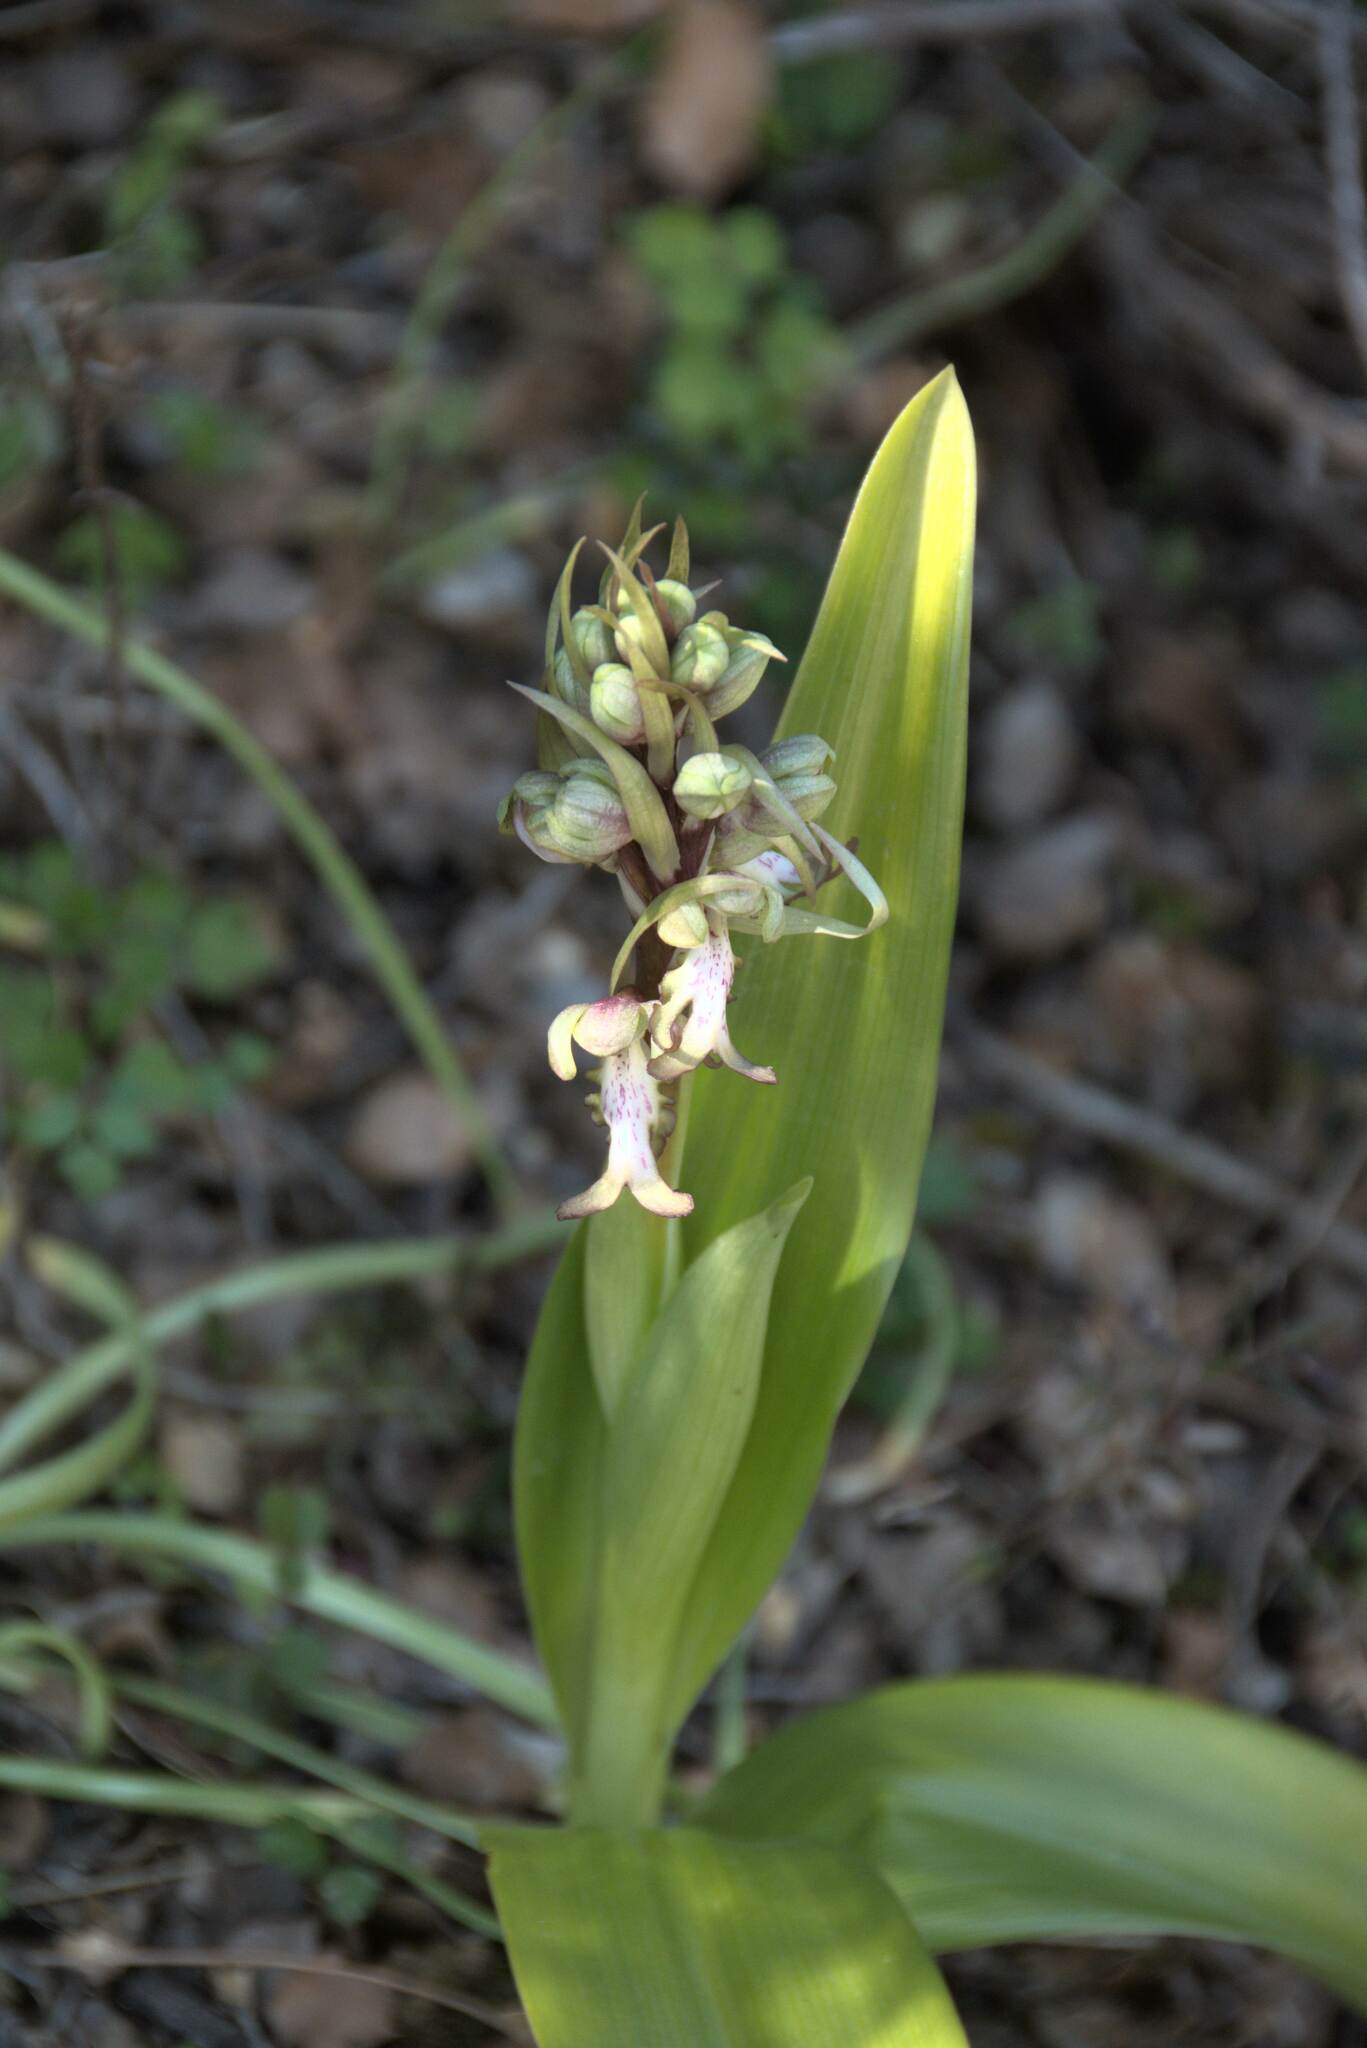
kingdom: Plantae
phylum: Tracheophyta
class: Liliopsida
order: Asparagales
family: Orchidaceae
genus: Himantoglossum
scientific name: Himantoglossum robertianum
